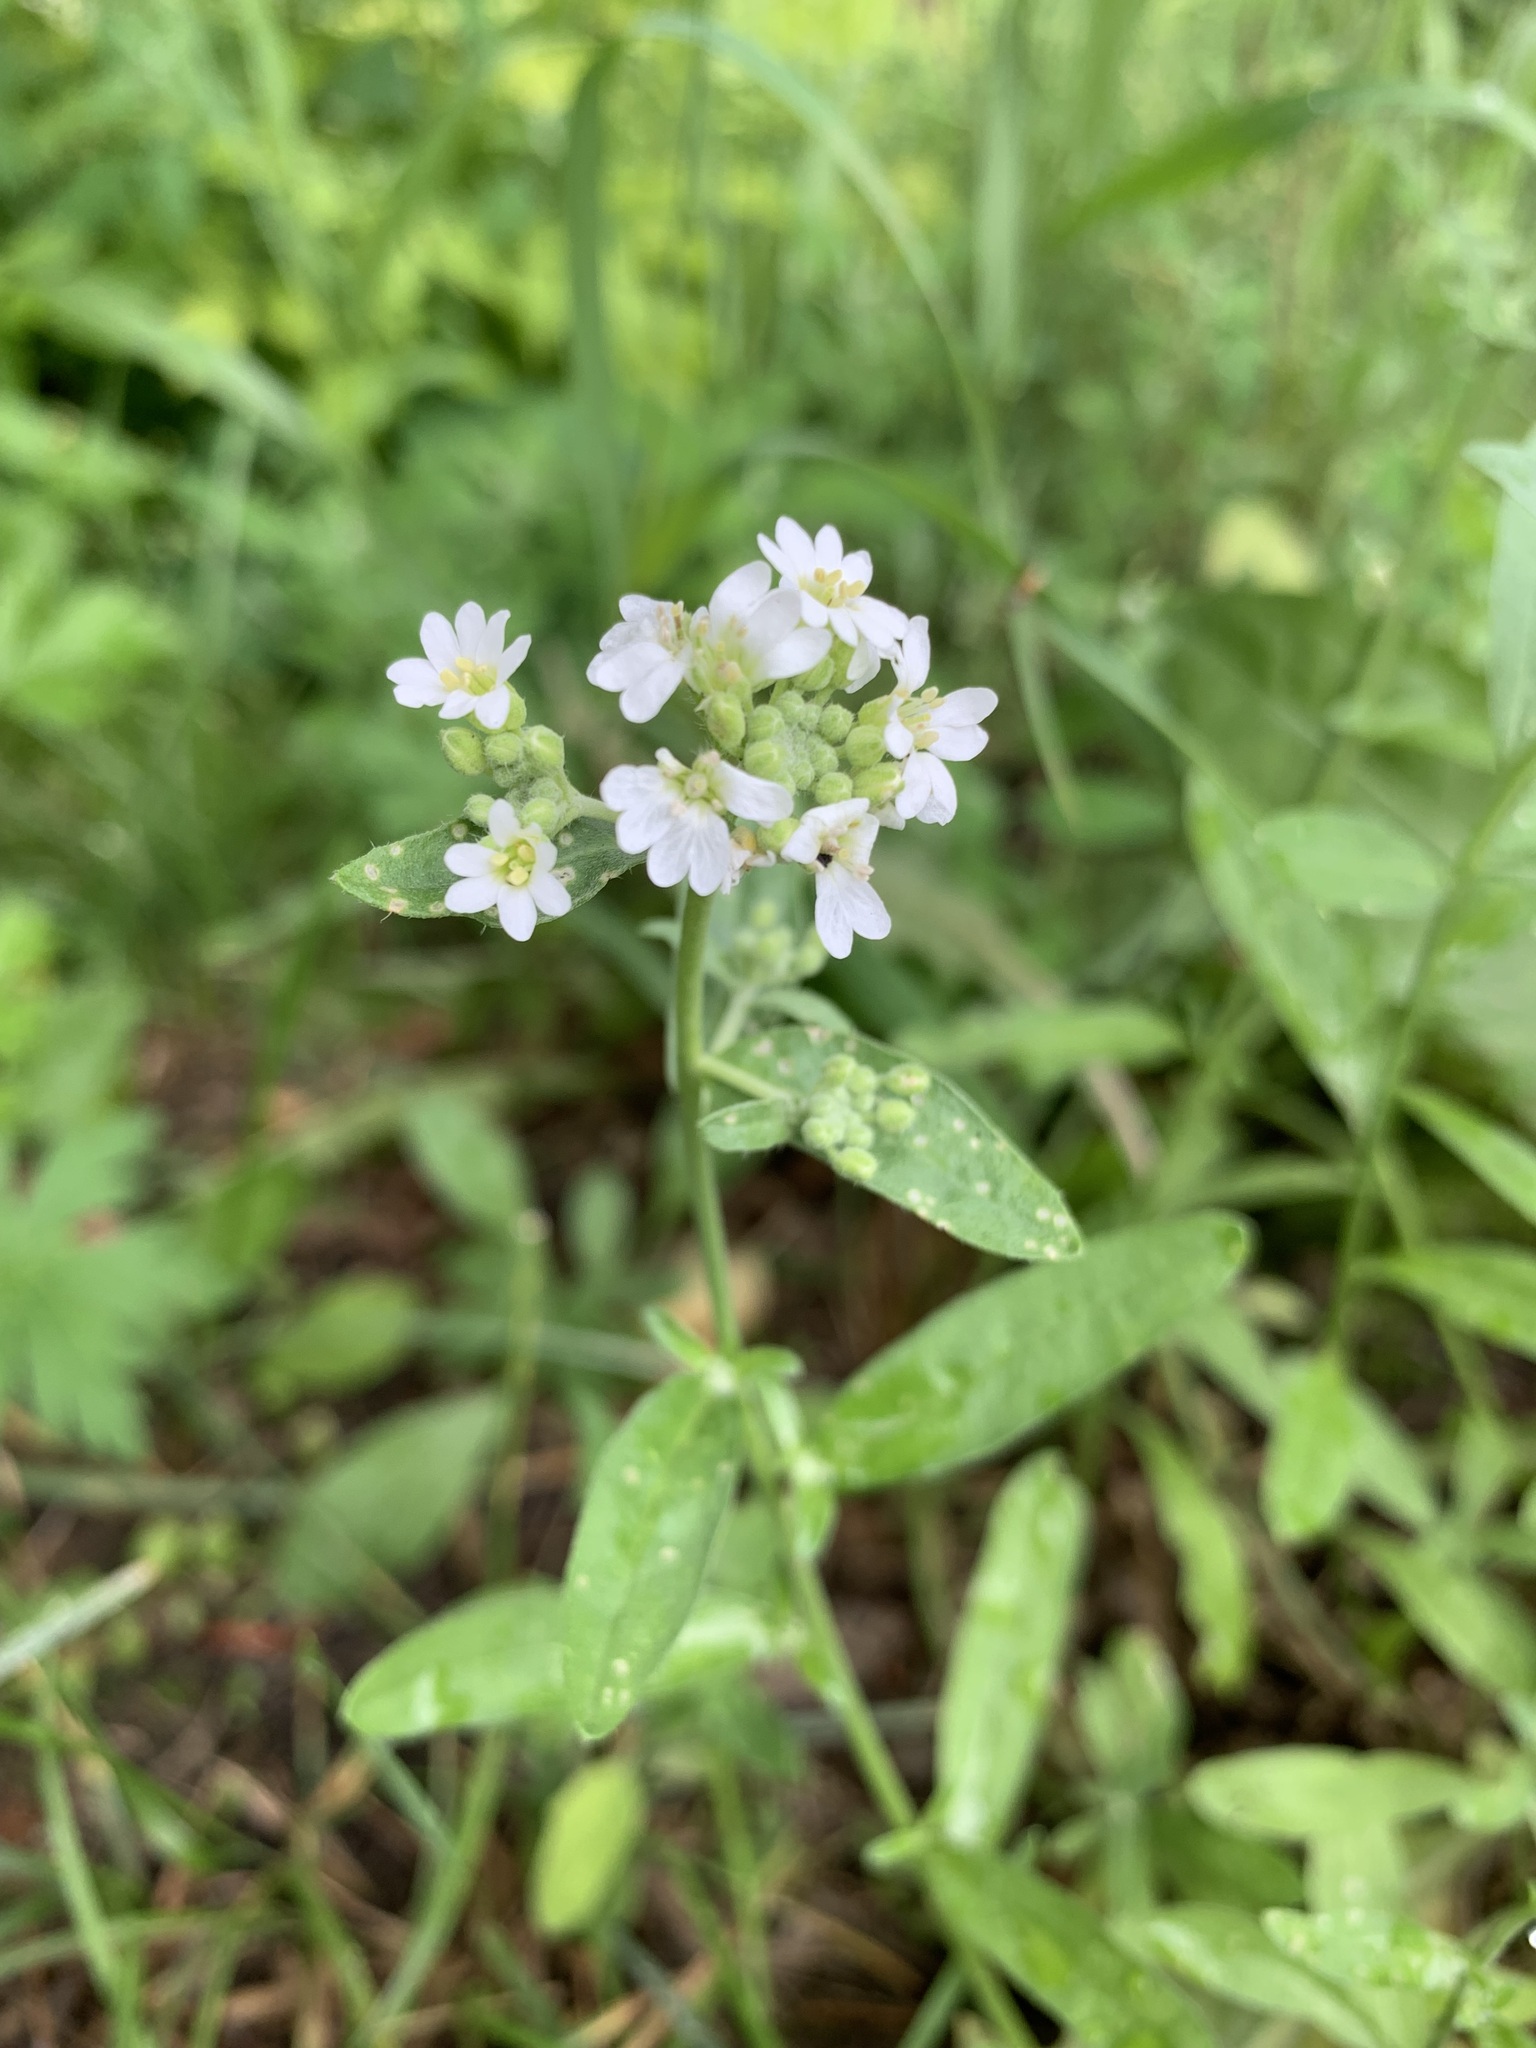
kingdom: Plantae
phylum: Tracheophyta
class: Magnoliopsida
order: Brassicales
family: Brassicaceae
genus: Berteroa
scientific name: Berteroa incana
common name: Hoary alison
